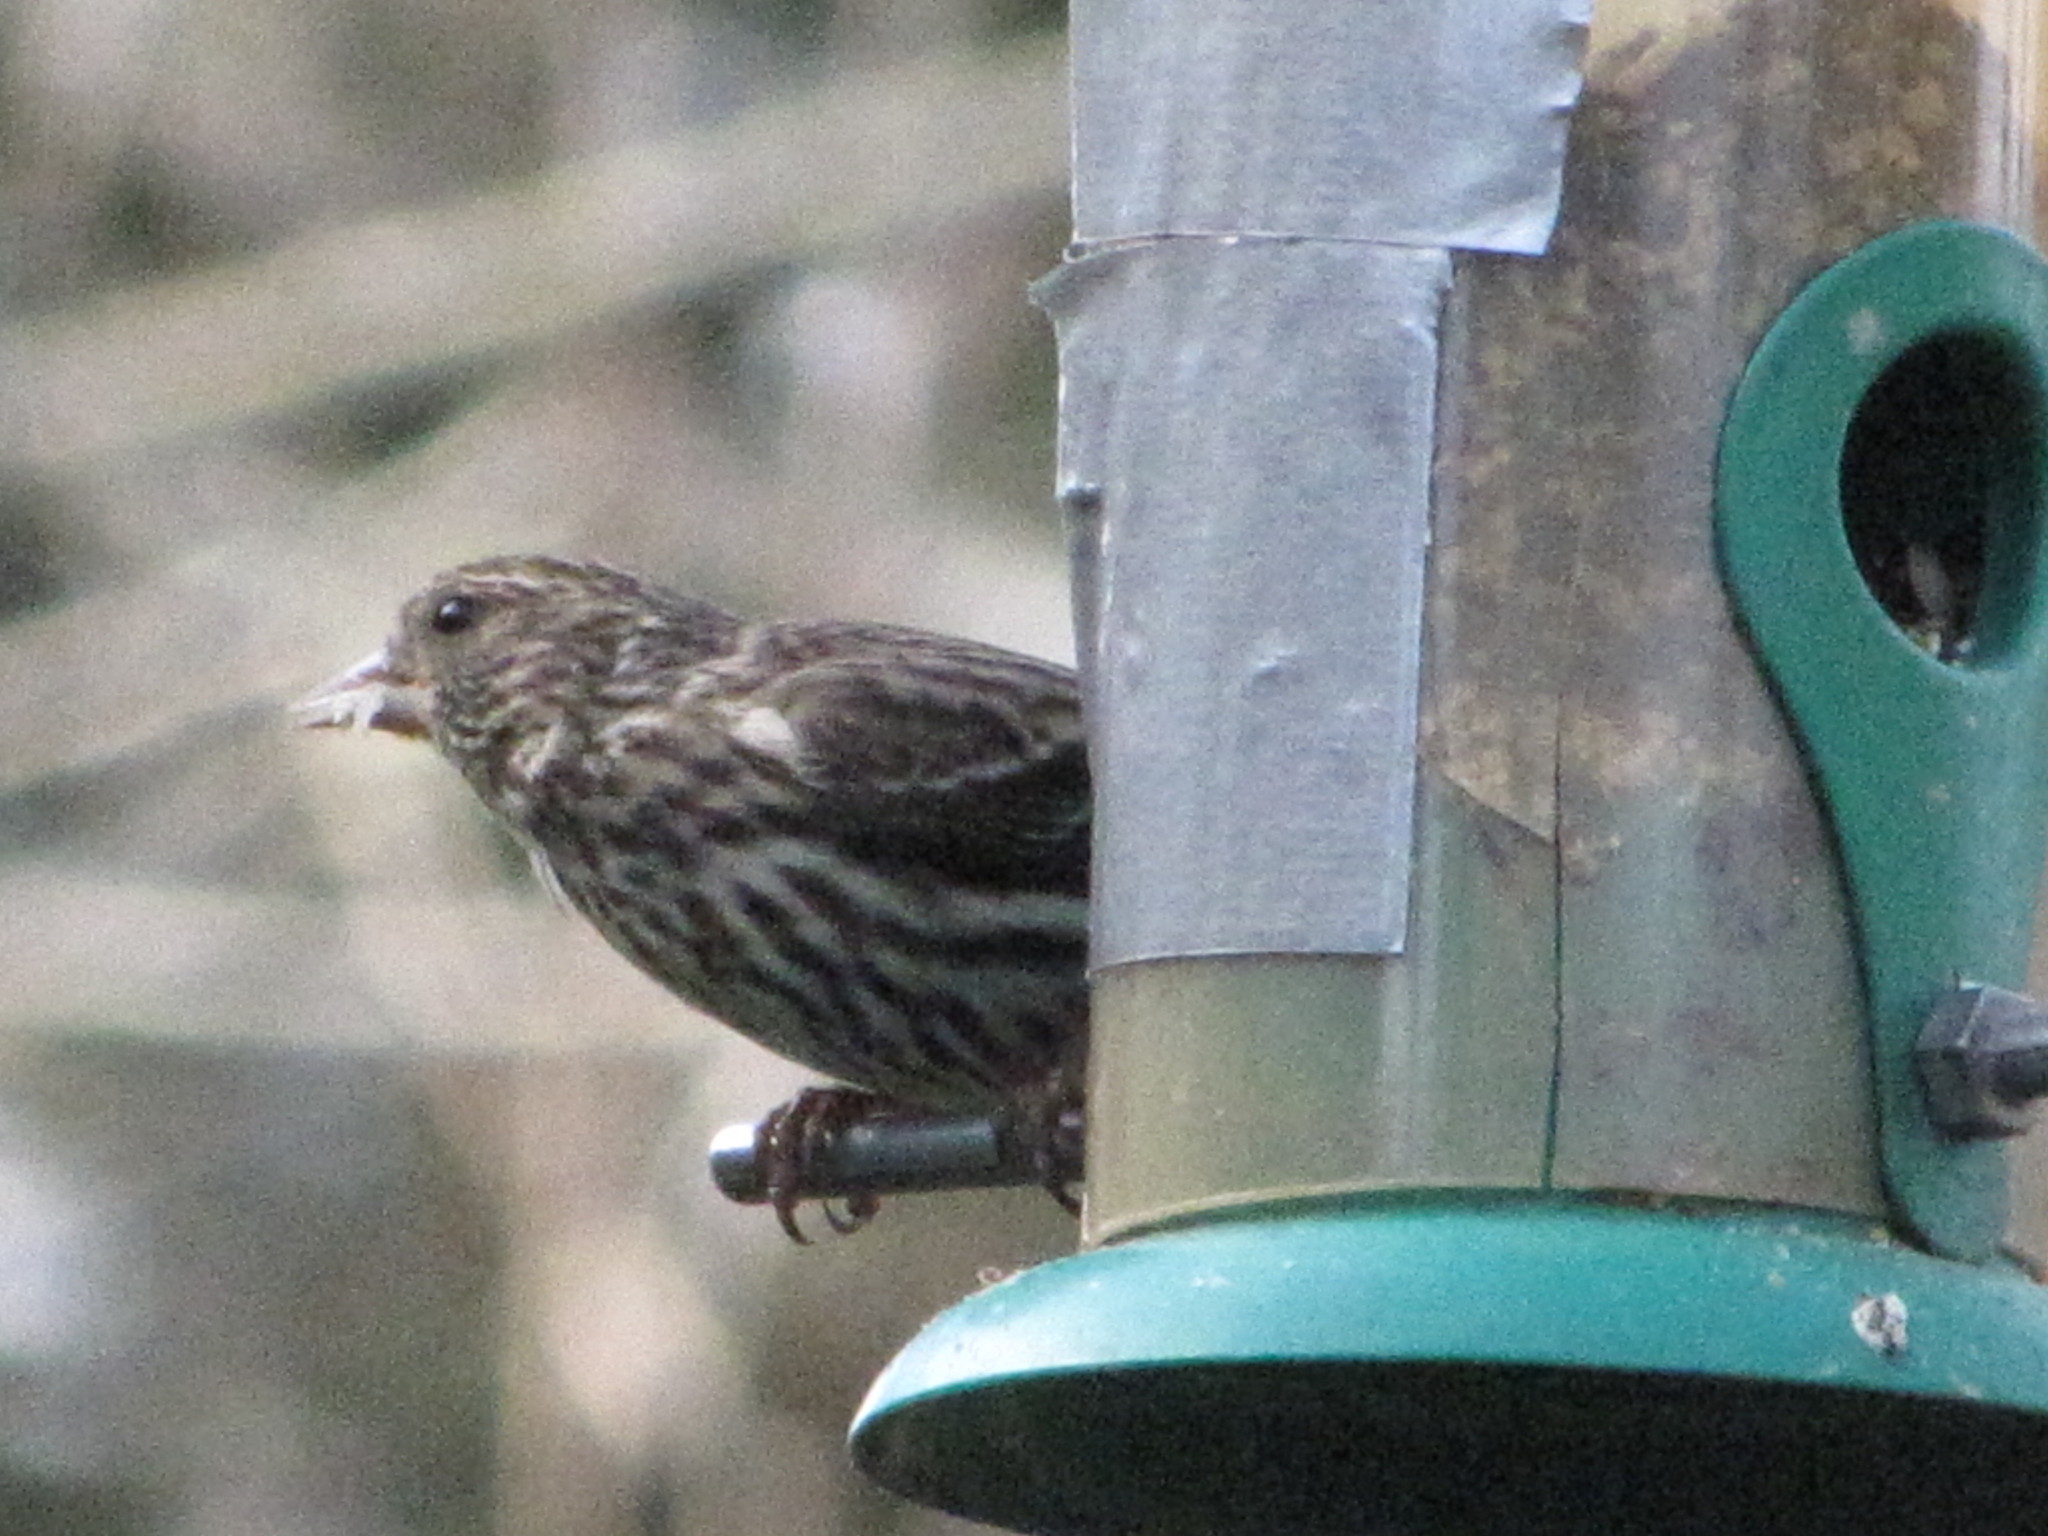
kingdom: Animalia
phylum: Chordata
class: Aves
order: Passeriformes
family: Fringillidae
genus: Spinus
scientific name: Spinus pinus
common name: Pine siskin
